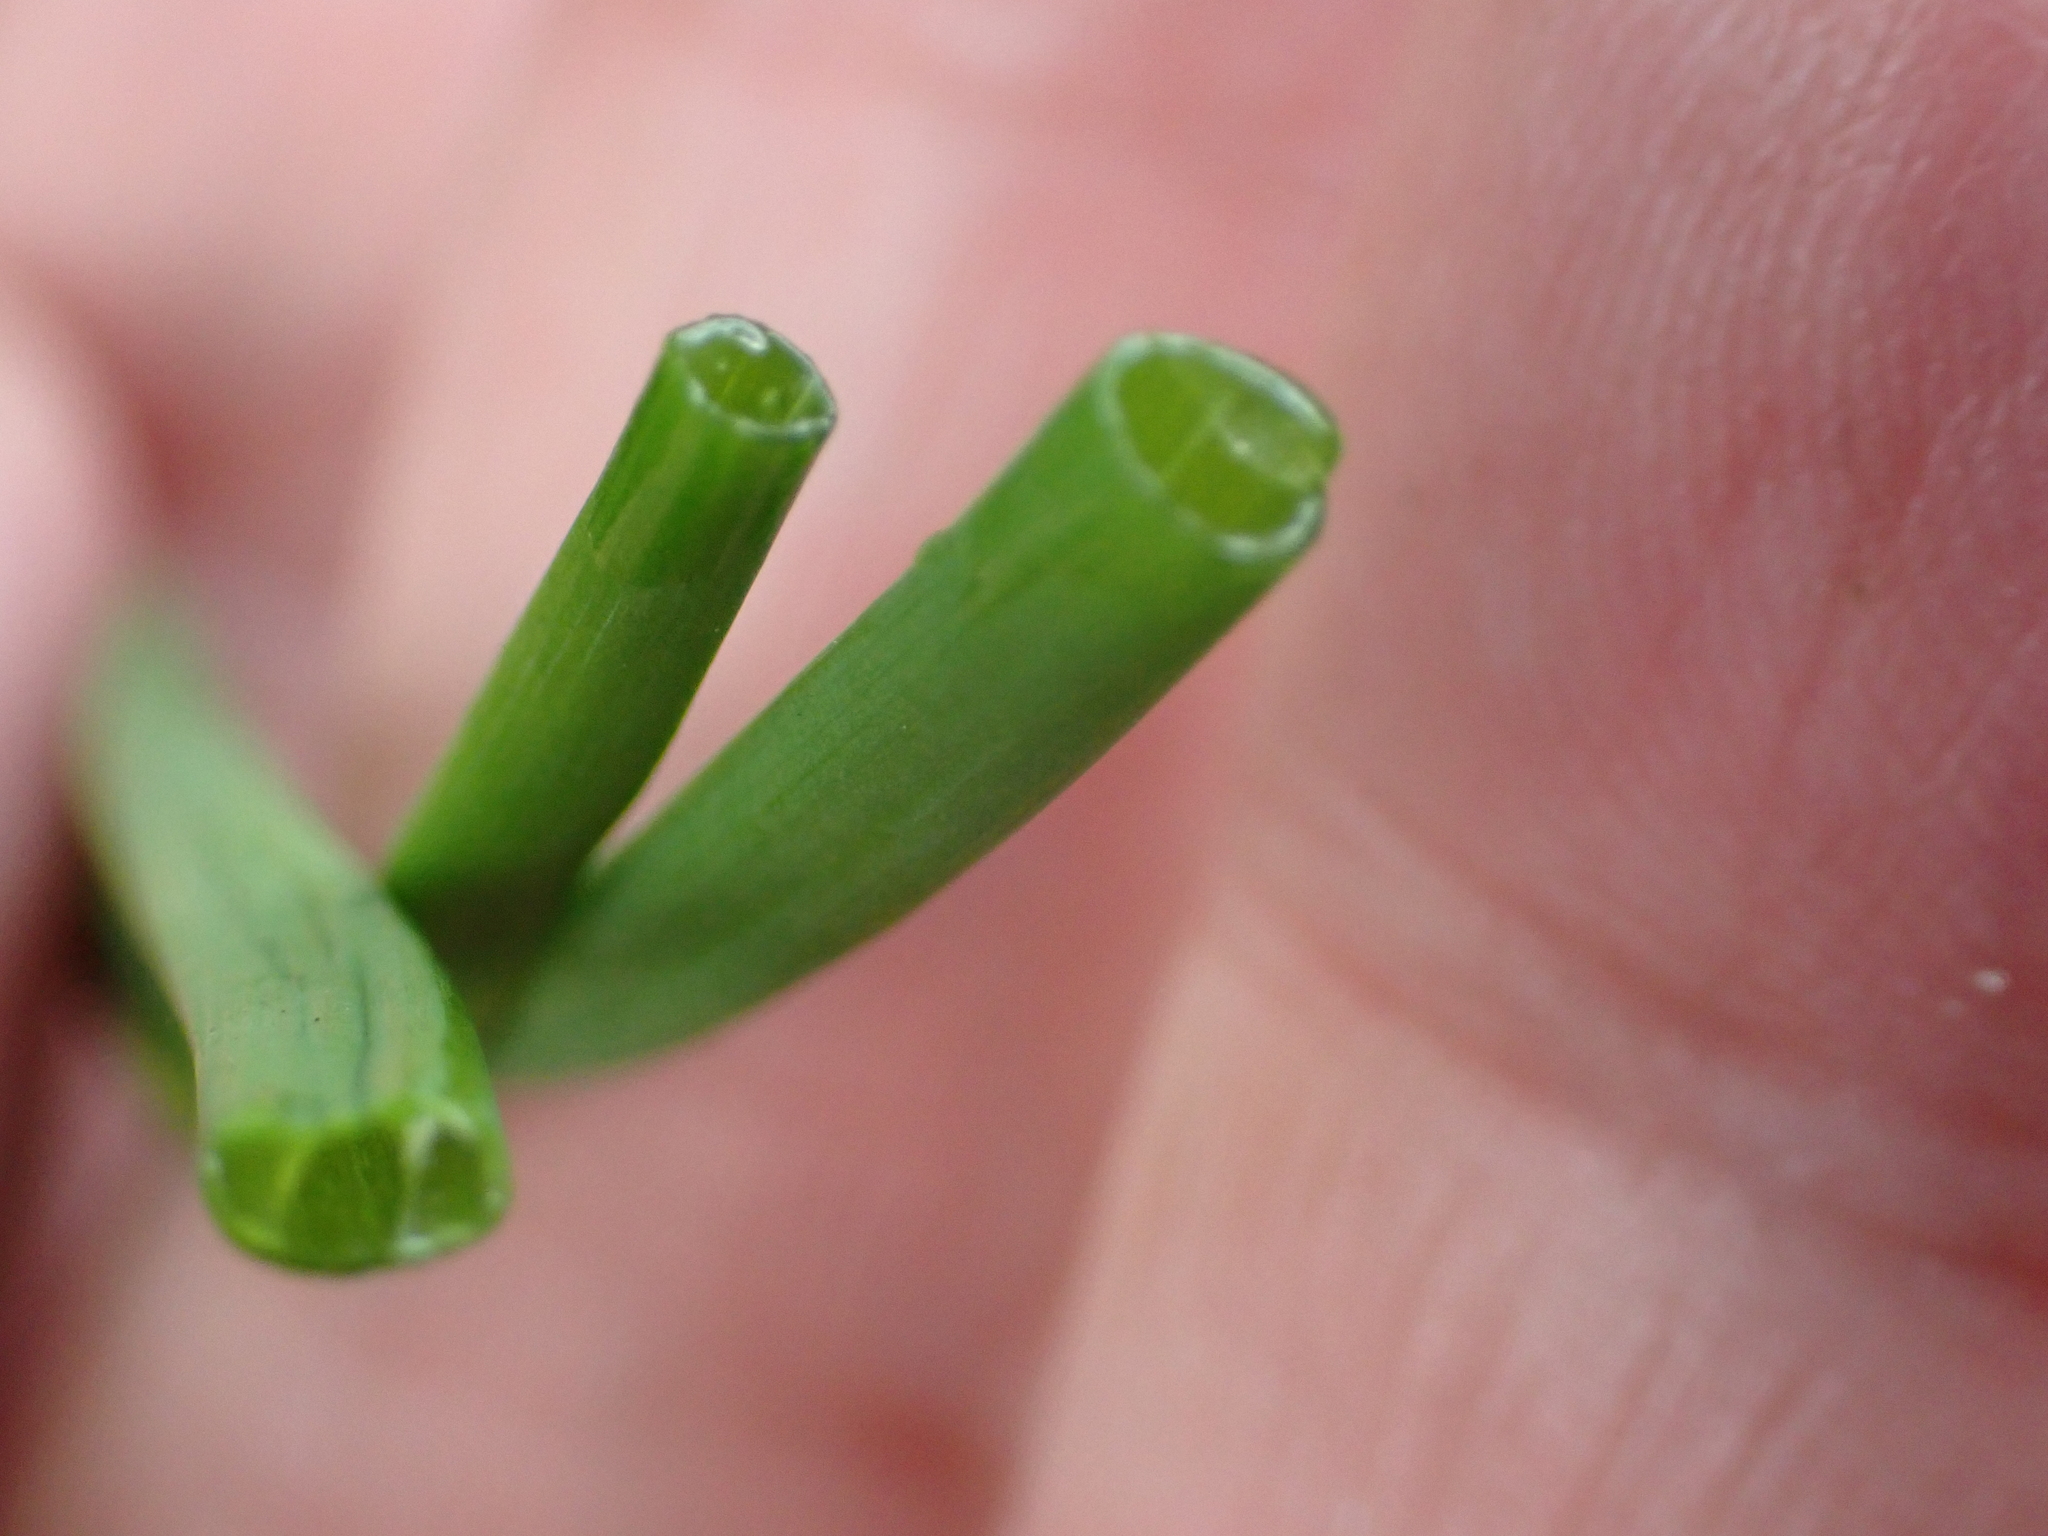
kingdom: Plantae
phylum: Tracheophyta
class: Liliopsida
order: Asparagales
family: Amaryllidaceae
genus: Allium
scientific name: Allium vineale
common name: Crow garlic
